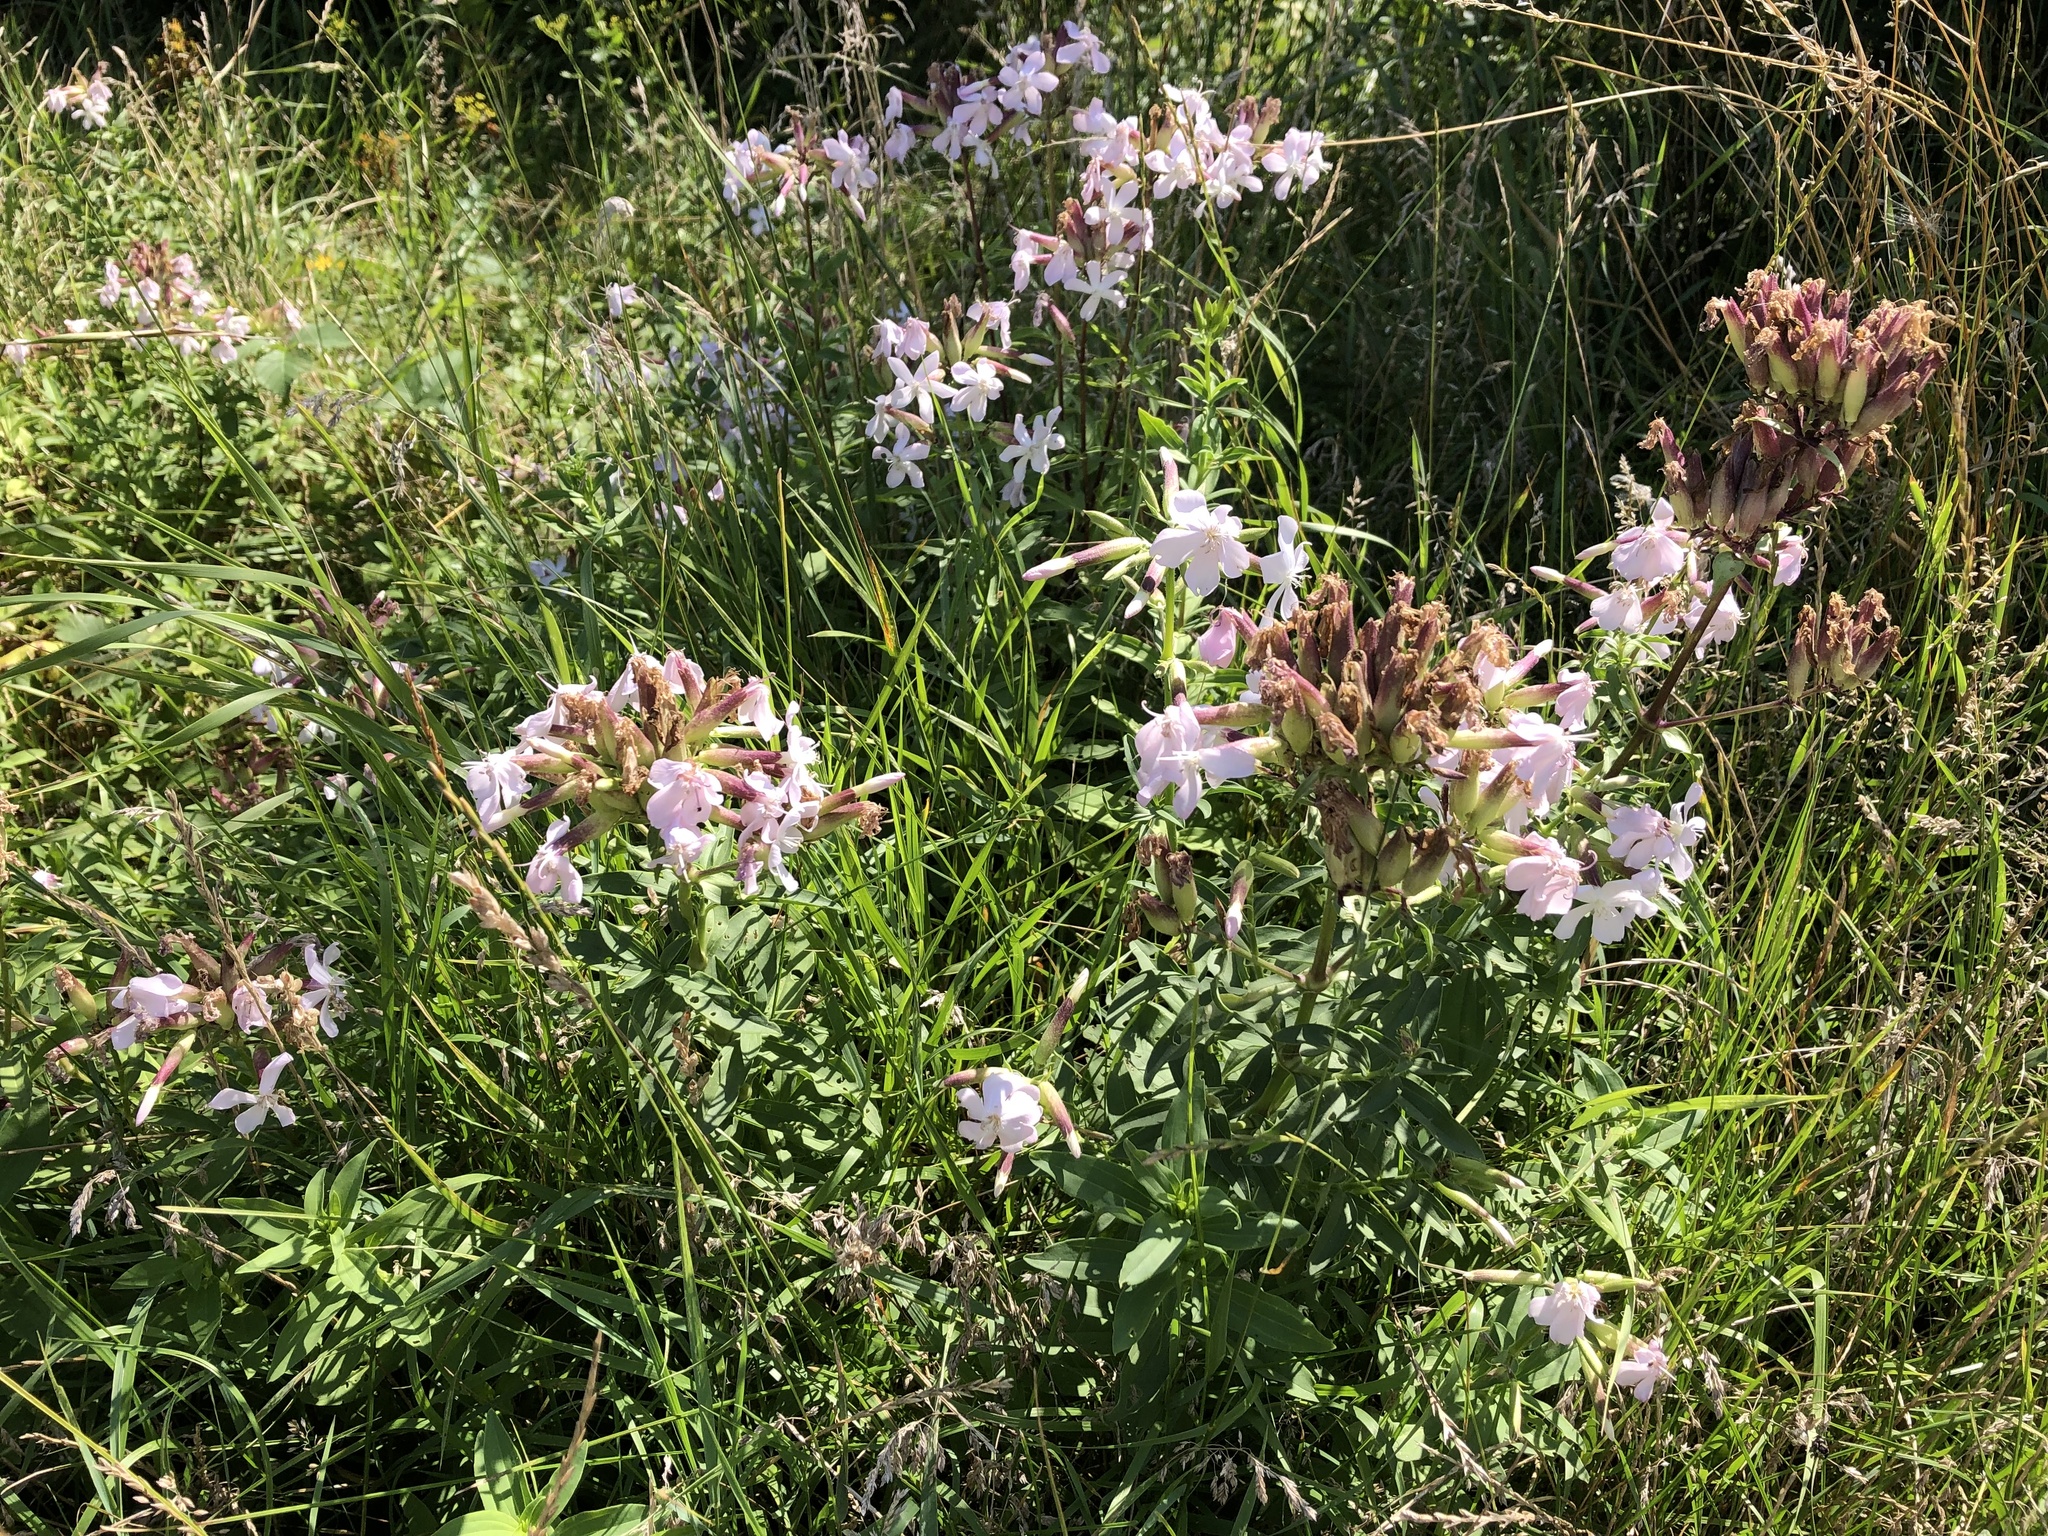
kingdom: Plantae
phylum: Tracheophyta
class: Magnoliopsida
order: Caryophyllales
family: Caryophyllaceae
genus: Saponaria
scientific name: Saponaria officinalis
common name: Soapwort
